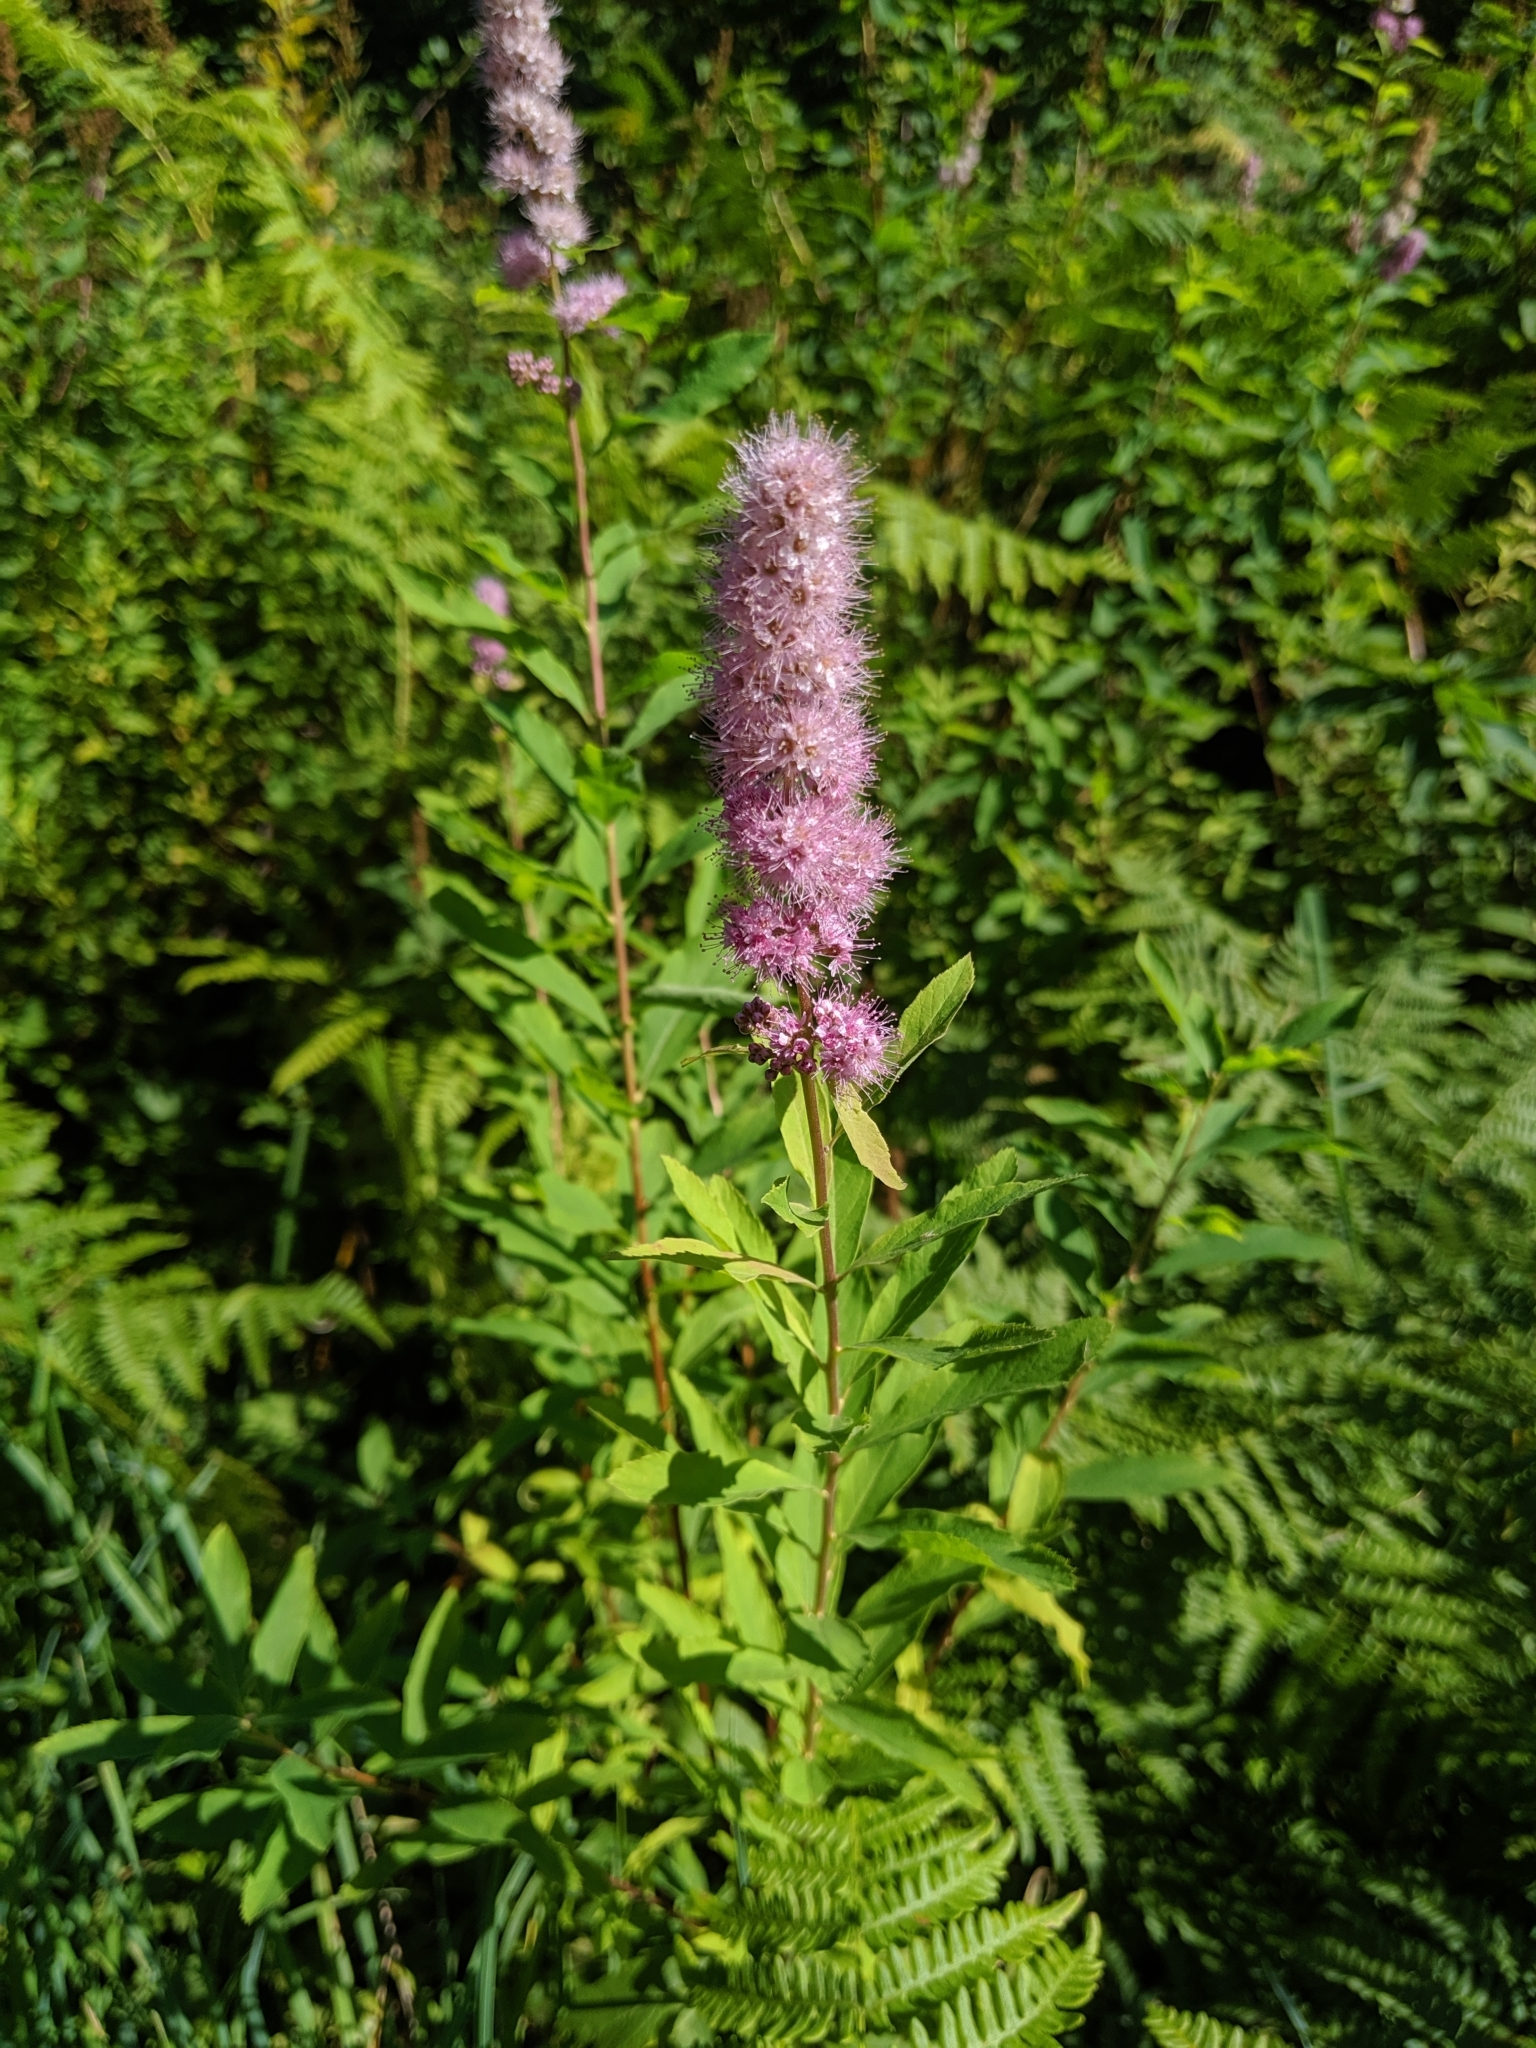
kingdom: Plantae
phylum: Tracheophyta
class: Magnoliopsida
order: Rosales
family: Rosaceae
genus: Spiraea
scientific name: Spiraea douglasii
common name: Steeplebush
